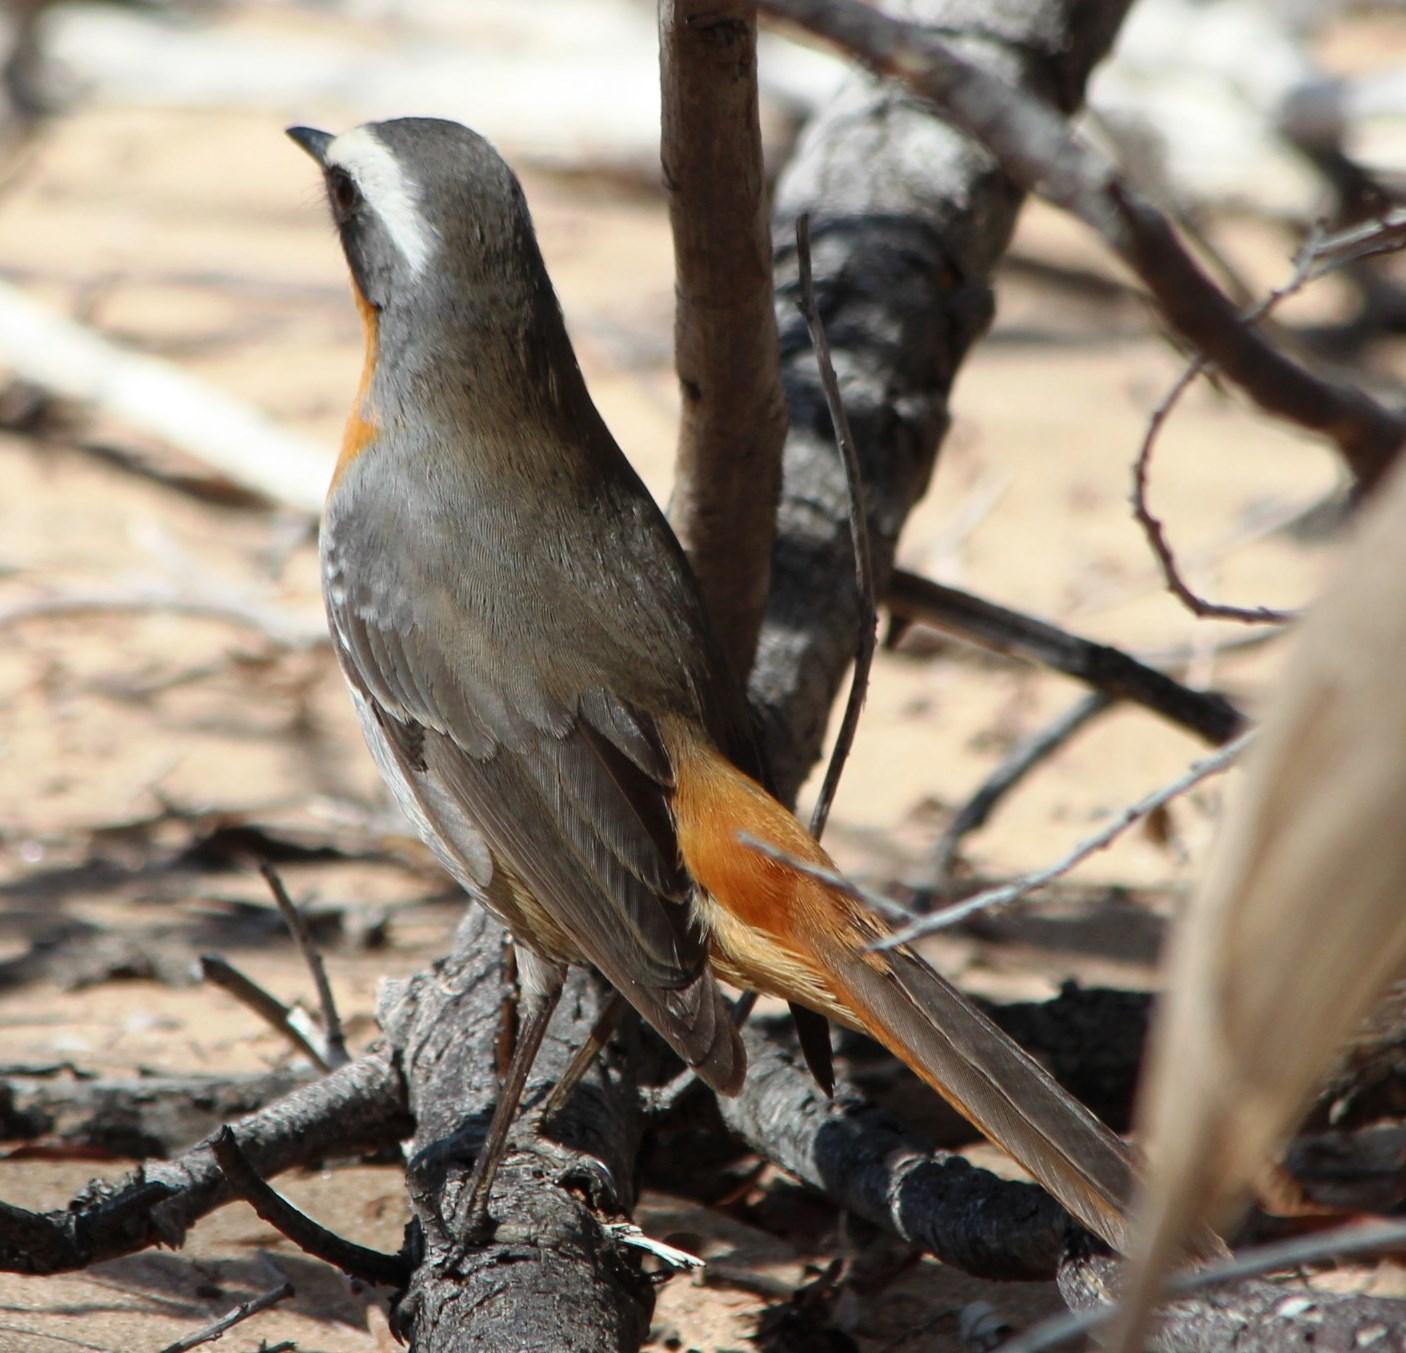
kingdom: Animalia
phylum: Chordata
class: Aves
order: Passeriformes
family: Muscicapidae
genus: Cossypha
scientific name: Cossypha caffra
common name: Cape robin-chat
